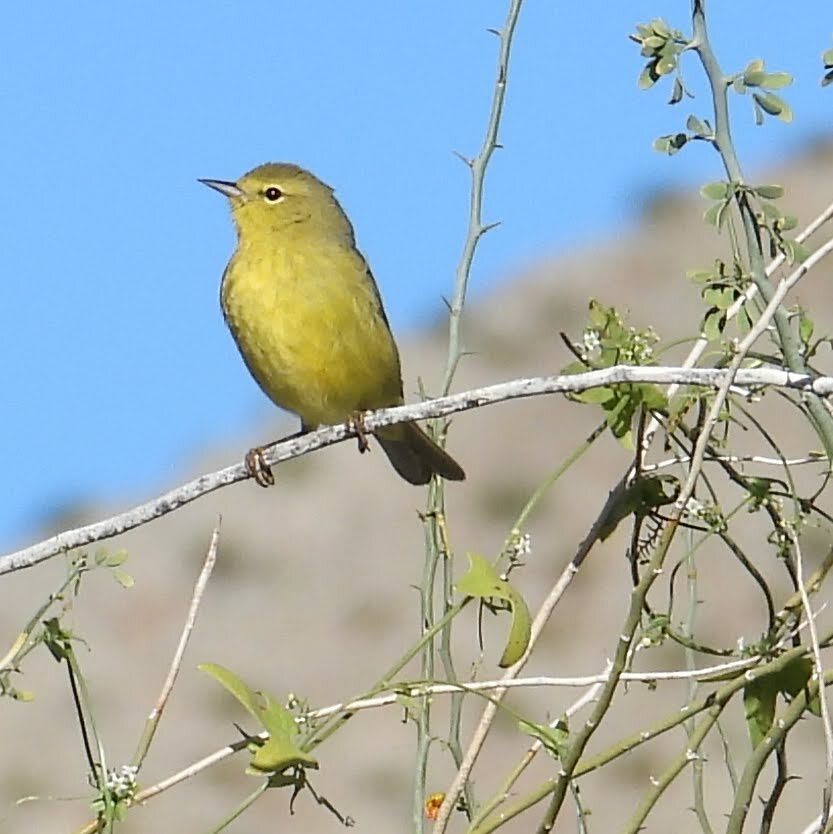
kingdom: Animalia
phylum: Chordata
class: Aves
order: Passeriformes
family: Parulidae
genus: Leiothlypis
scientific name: Leiothlypis celata
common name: Orange-crowned warbler
